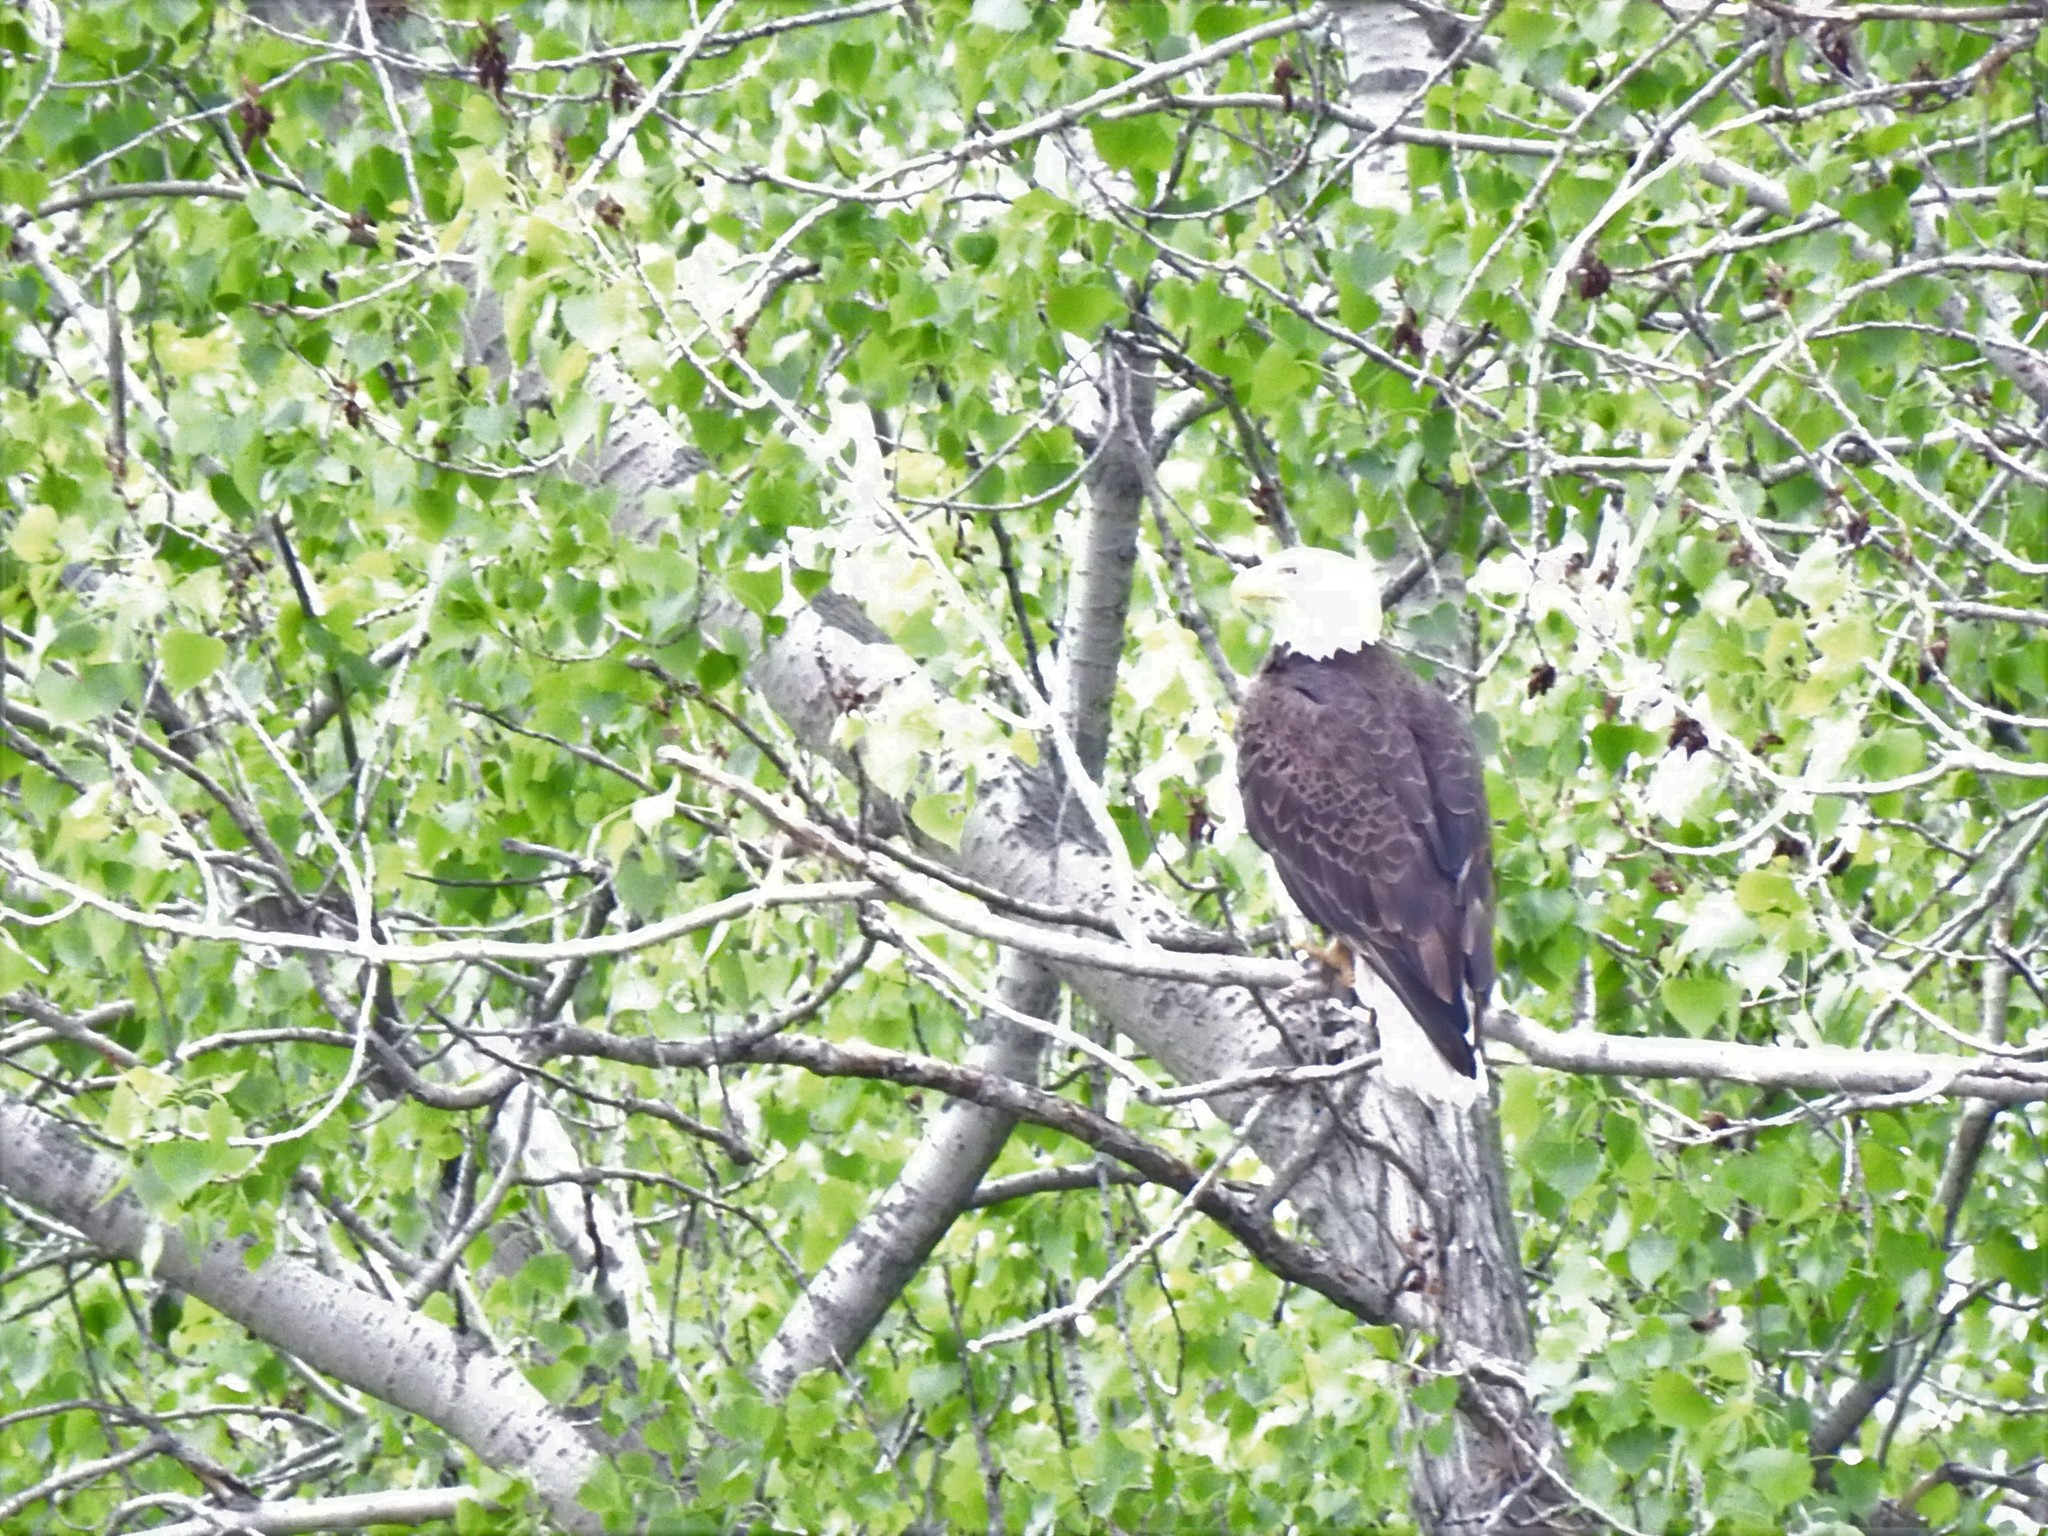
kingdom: Animalia
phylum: Chordata
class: Aves
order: Accipitriformes
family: Accipitridae
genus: Haliaeetus
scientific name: Haliaeetus leucocephalus
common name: Bald eagle
